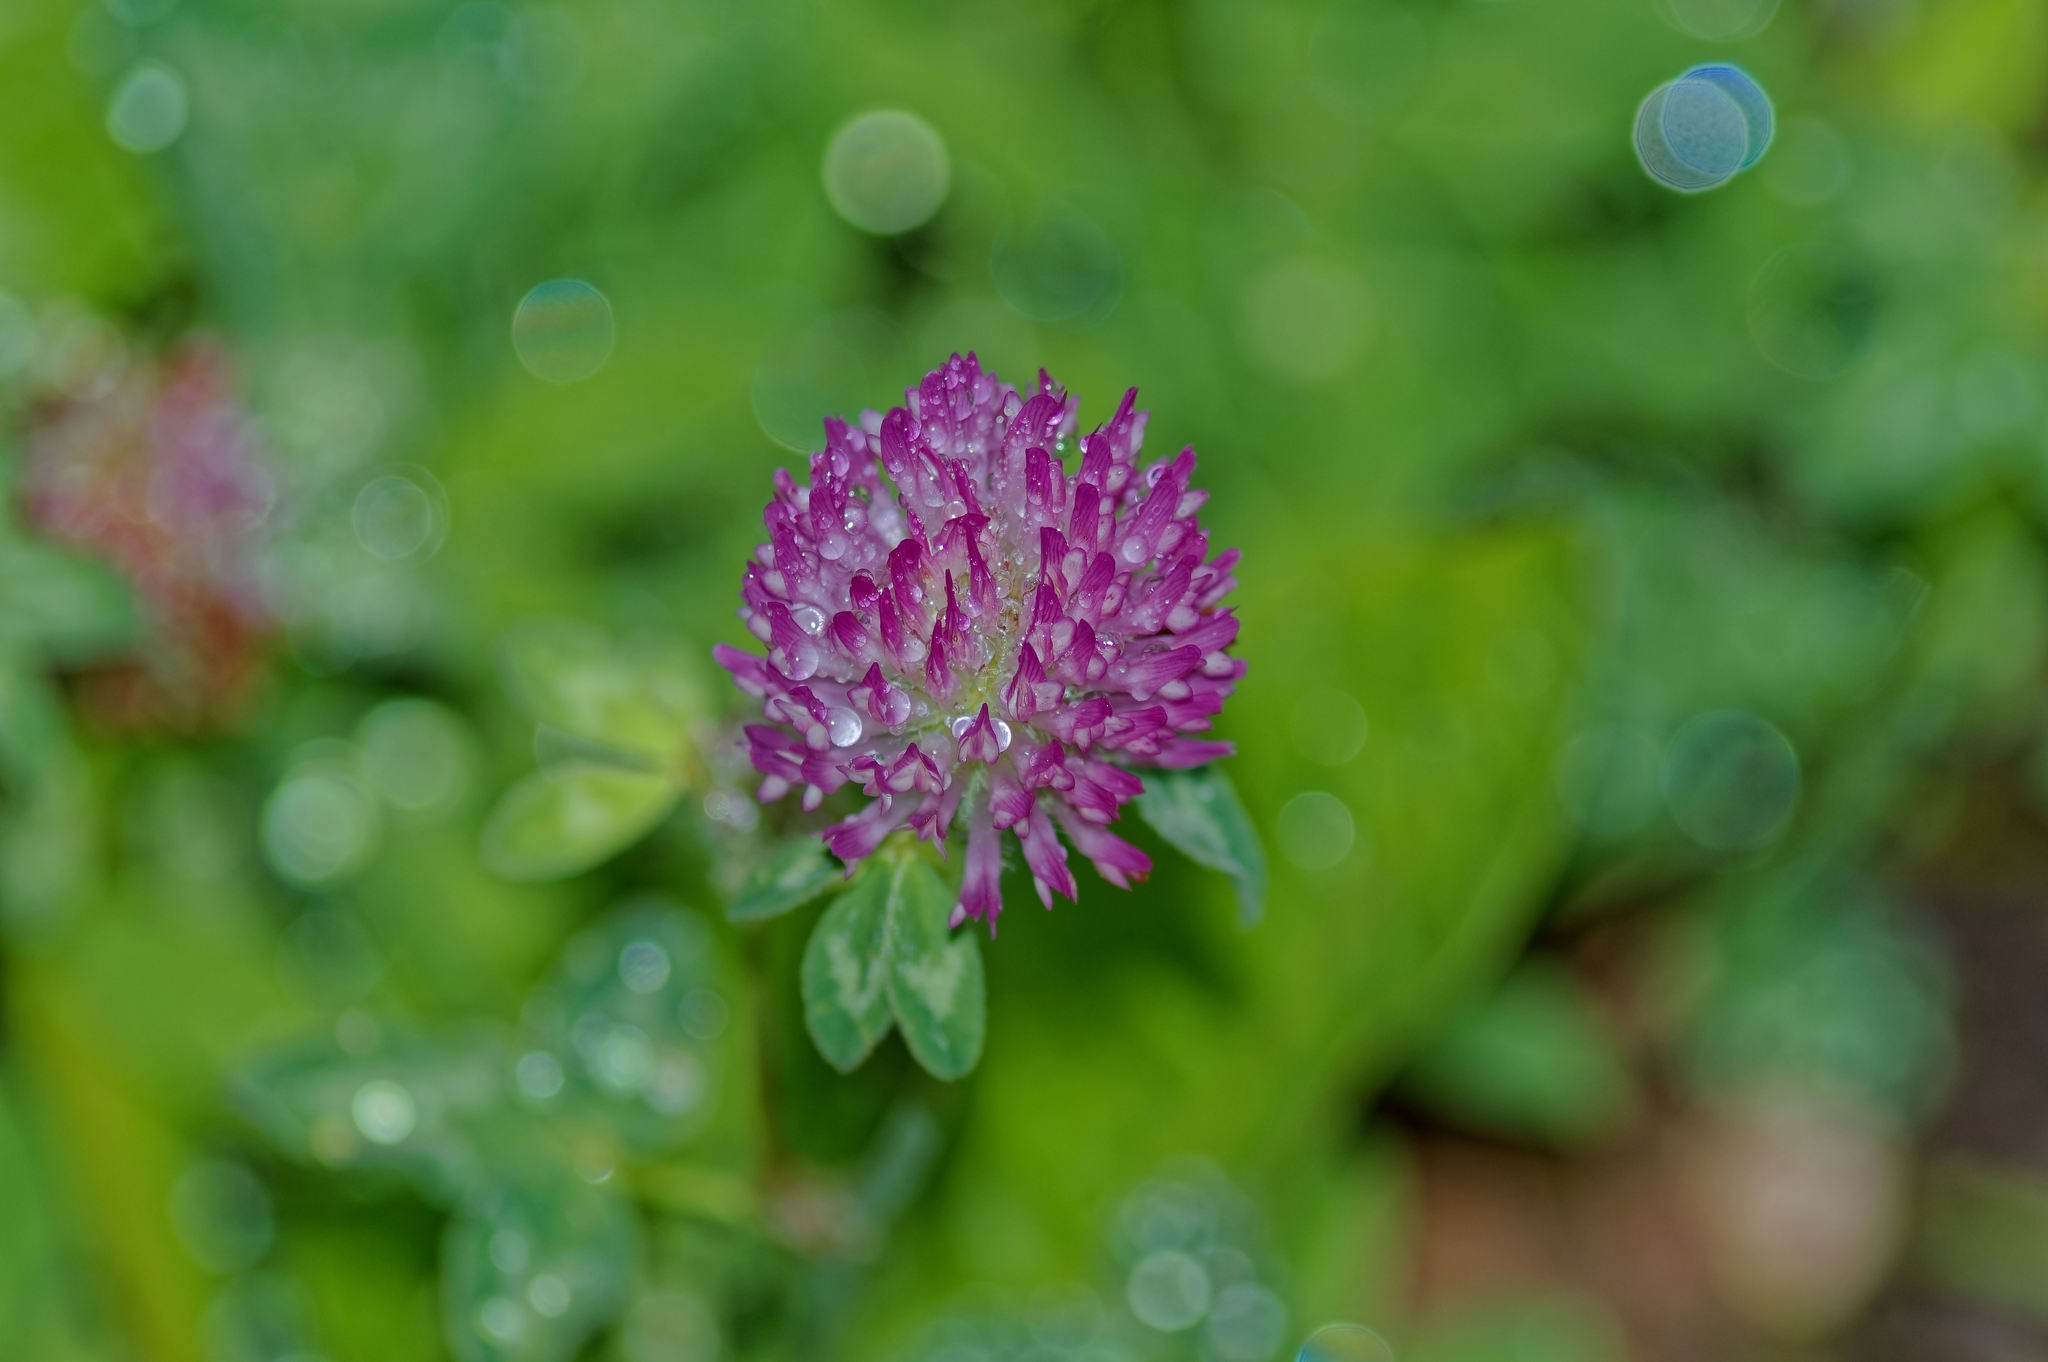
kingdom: Plantae
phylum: Tracheophyta
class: Magnoliopsida
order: Fabales
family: Fabaceae
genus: Trifolium
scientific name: Trifolium pratense
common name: Red clover
